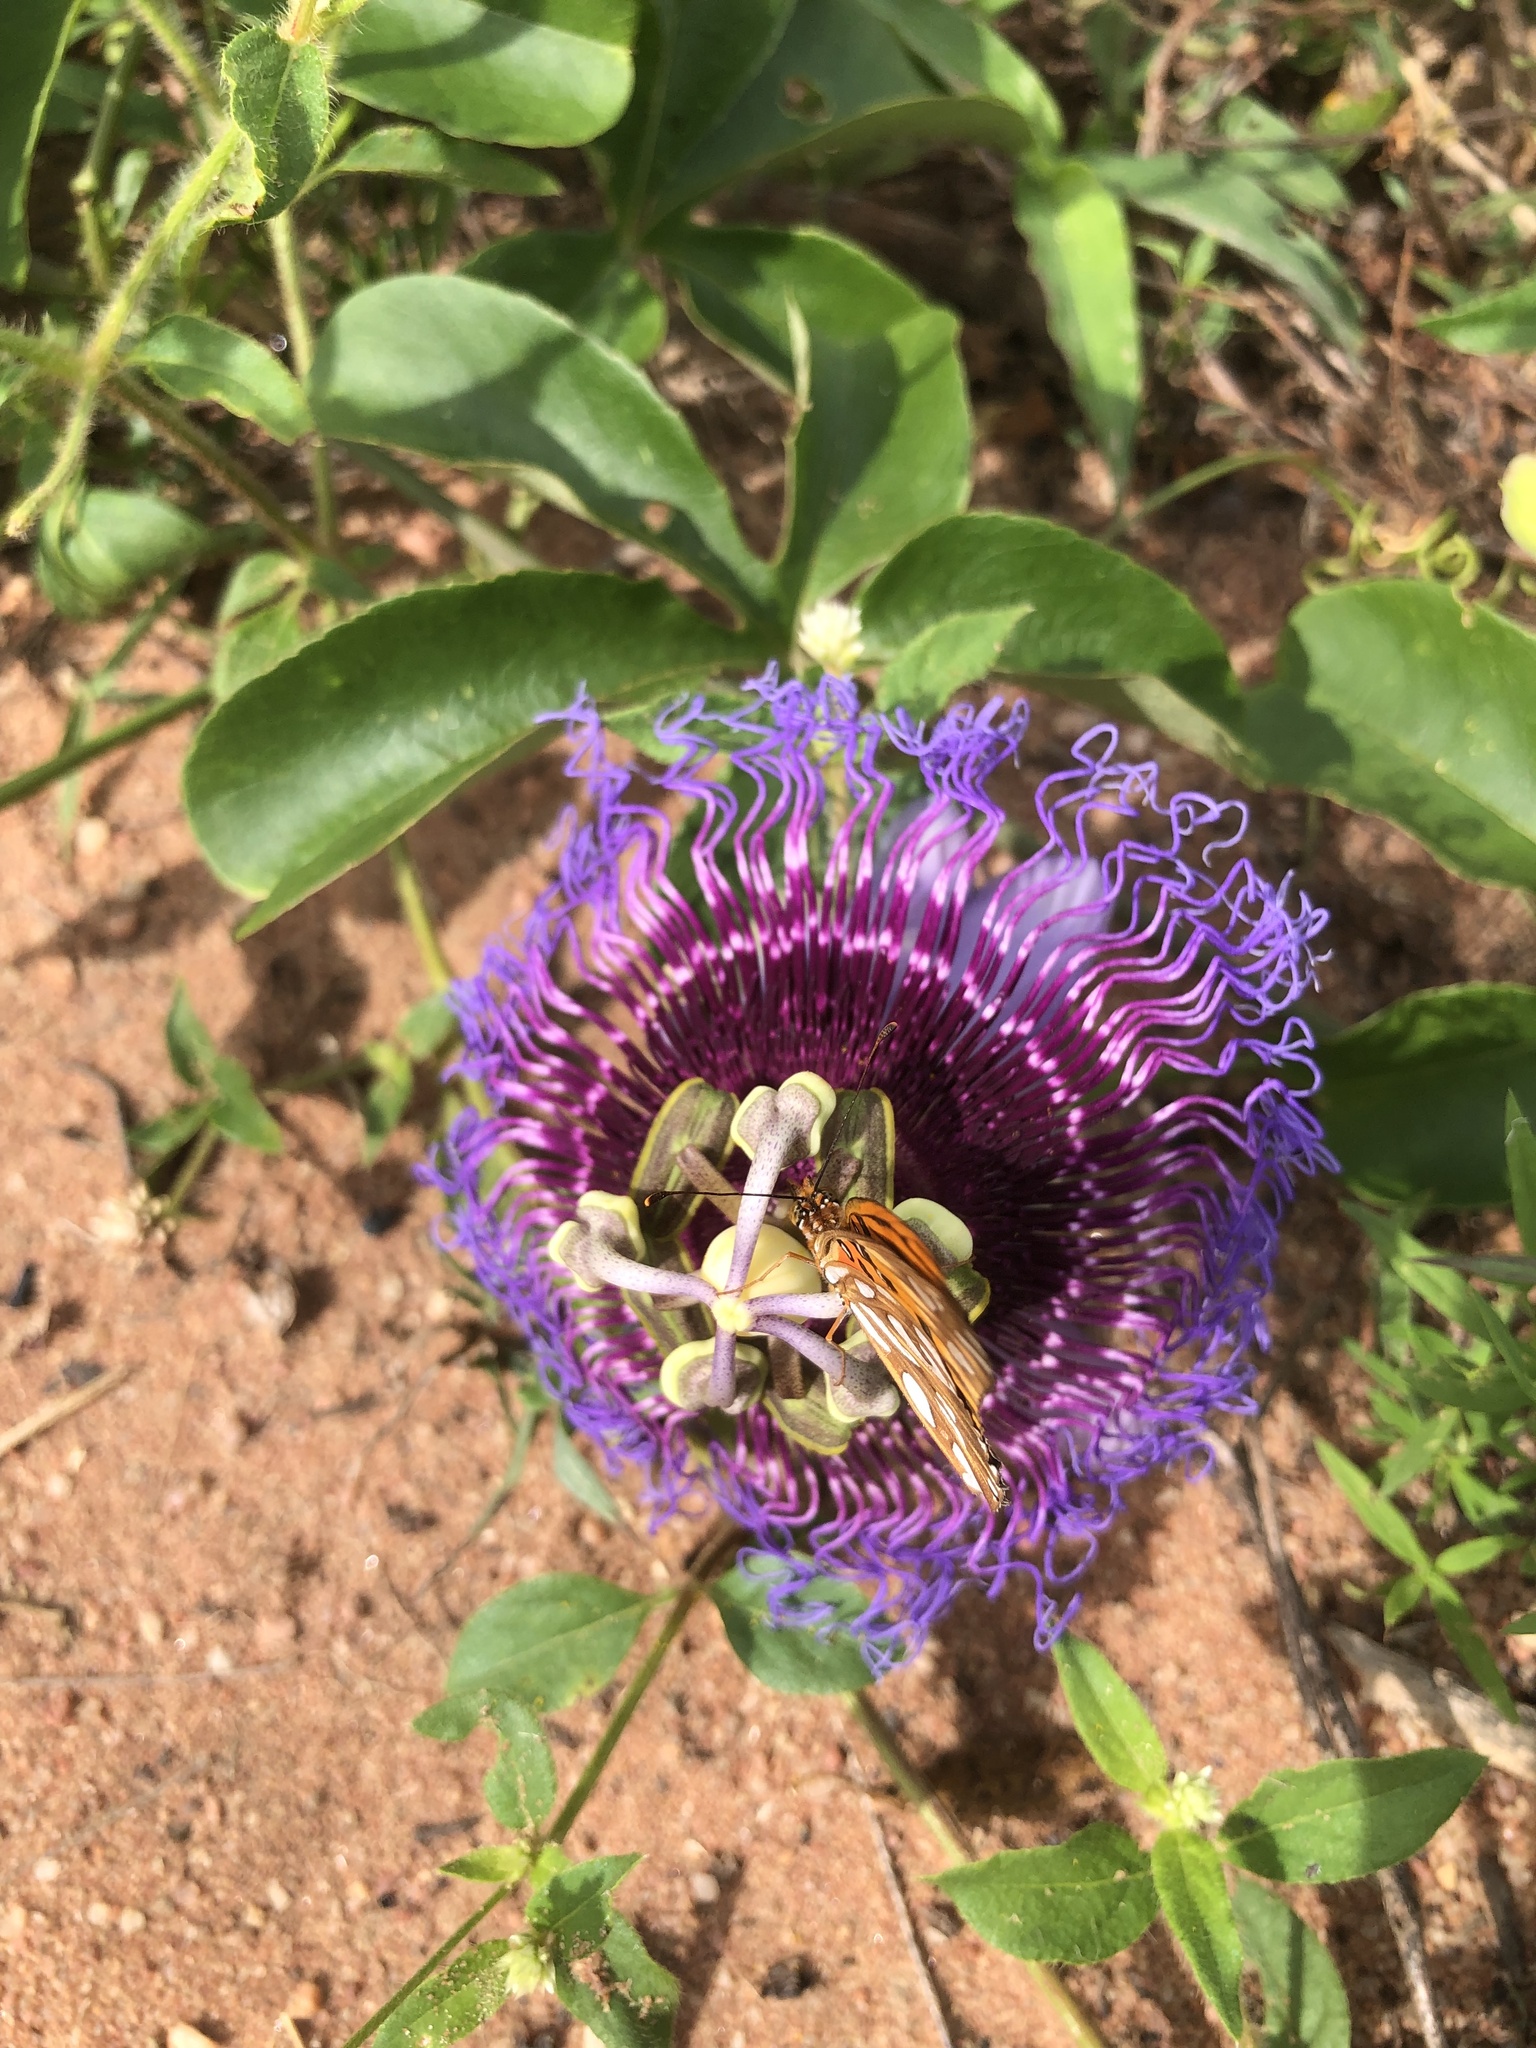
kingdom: Plantae
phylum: Tracheophyta
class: Magnoliopsida
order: Malpighiales
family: Passifloraceae
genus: Passiflora
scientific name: Passiflora cincinnata
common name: Crato passionvine
